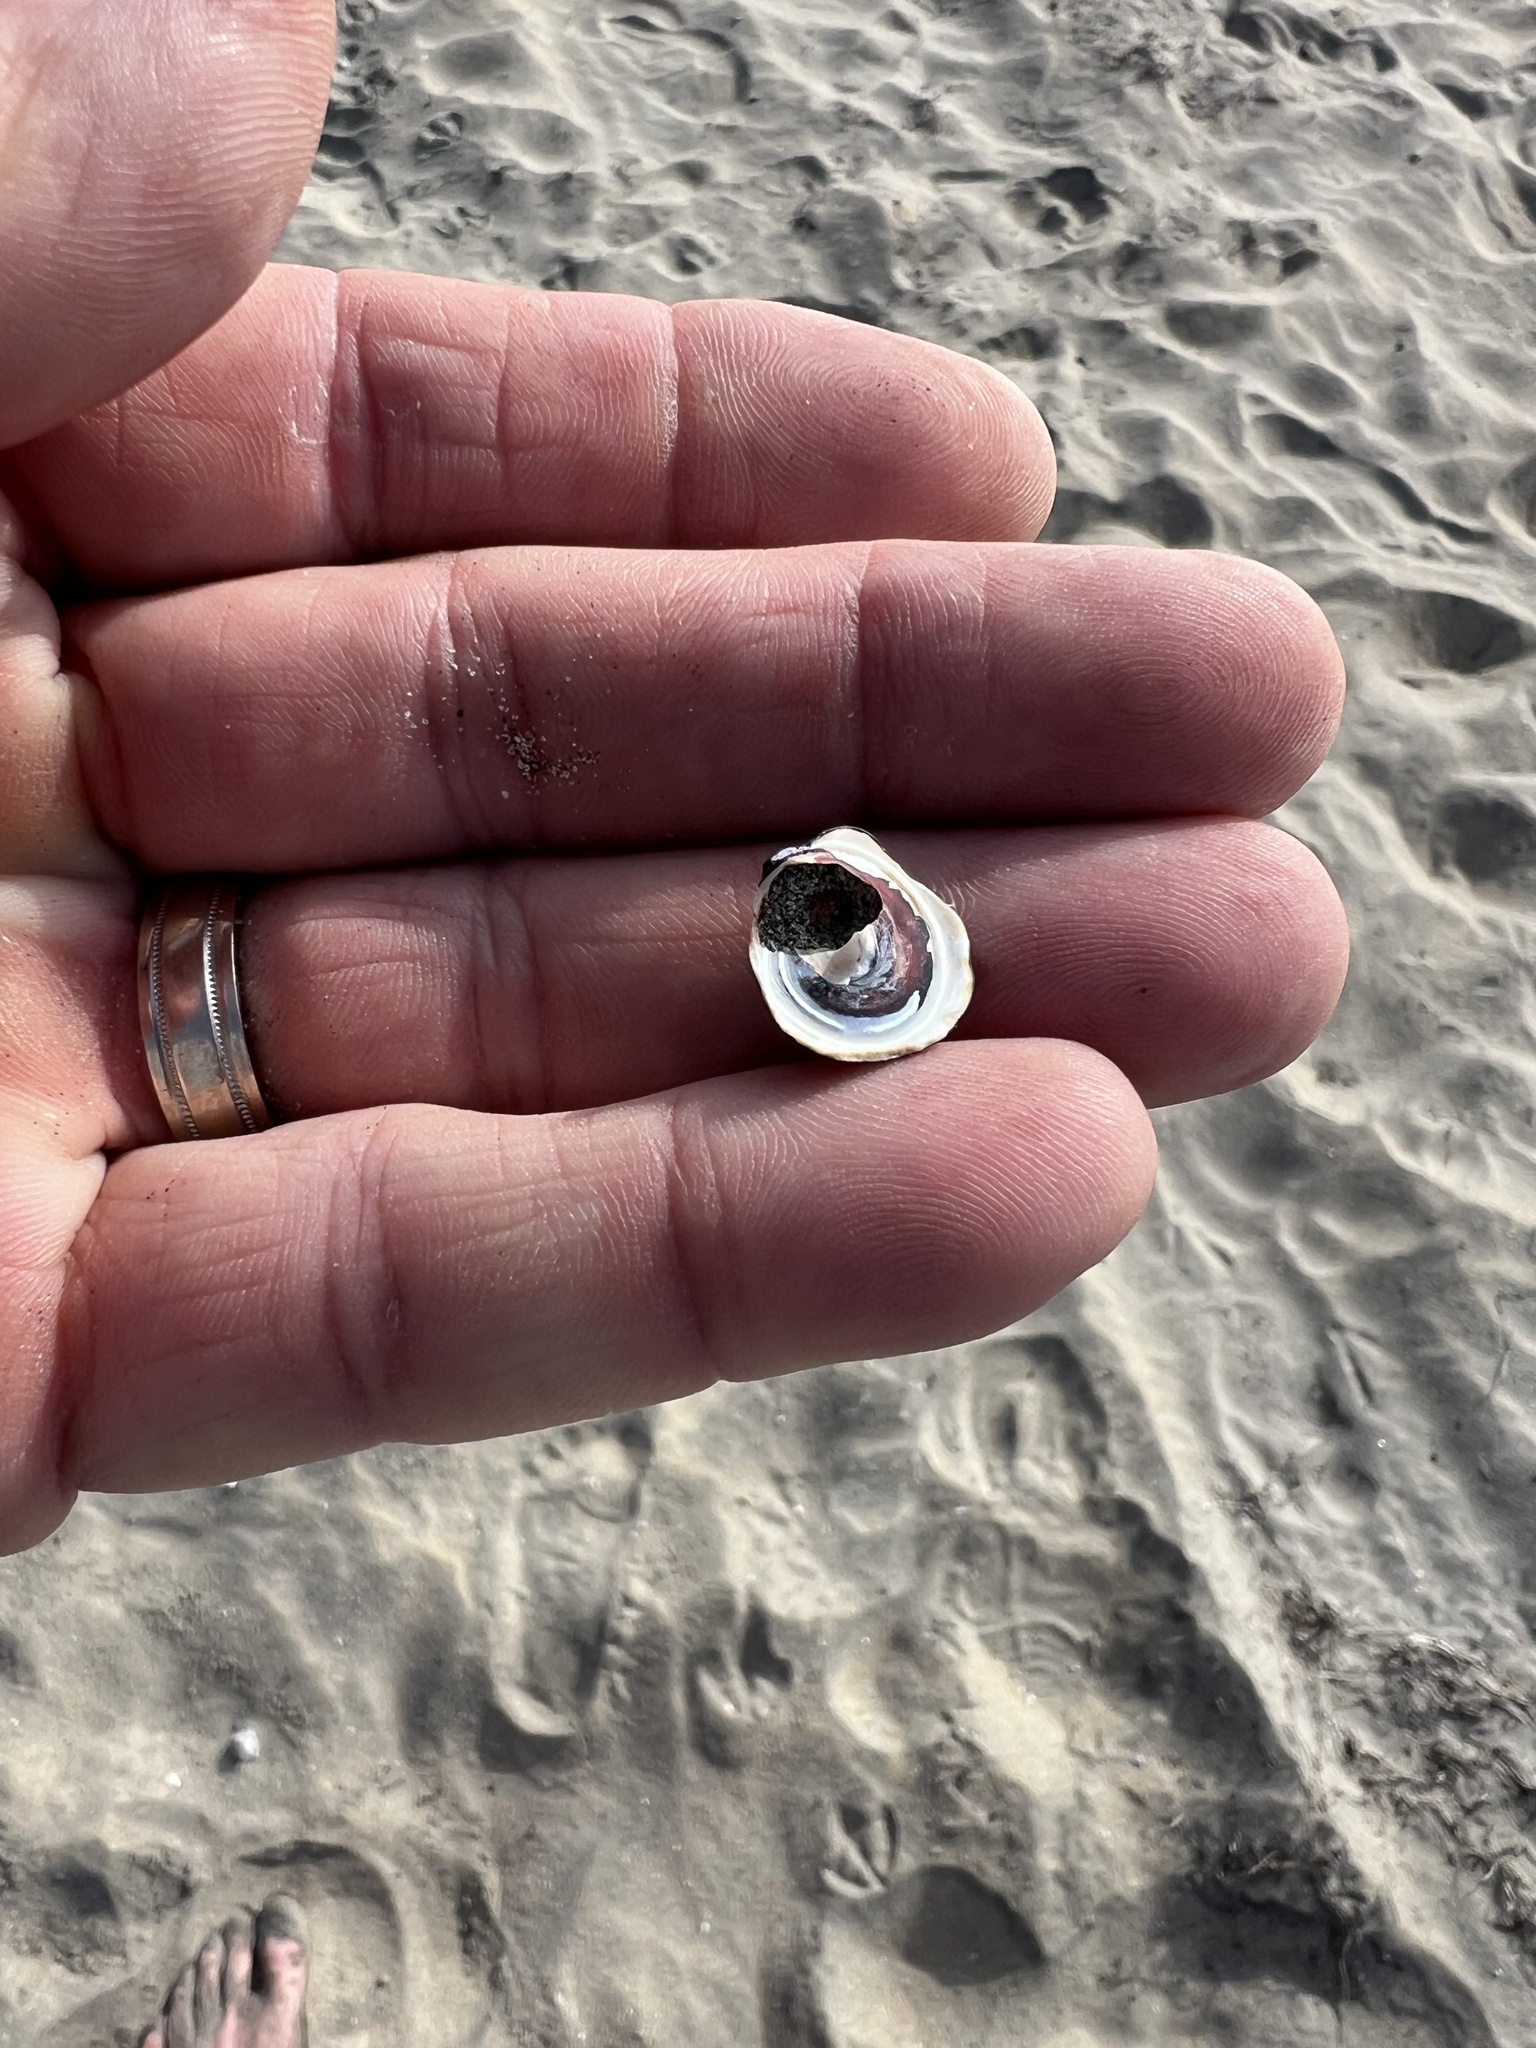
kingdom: Animalia
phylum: Mollusca
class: Gastropoda
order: Trochida
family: Tegulidae
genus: Tegula
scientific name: Tegula funebralis
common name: Black tegula
